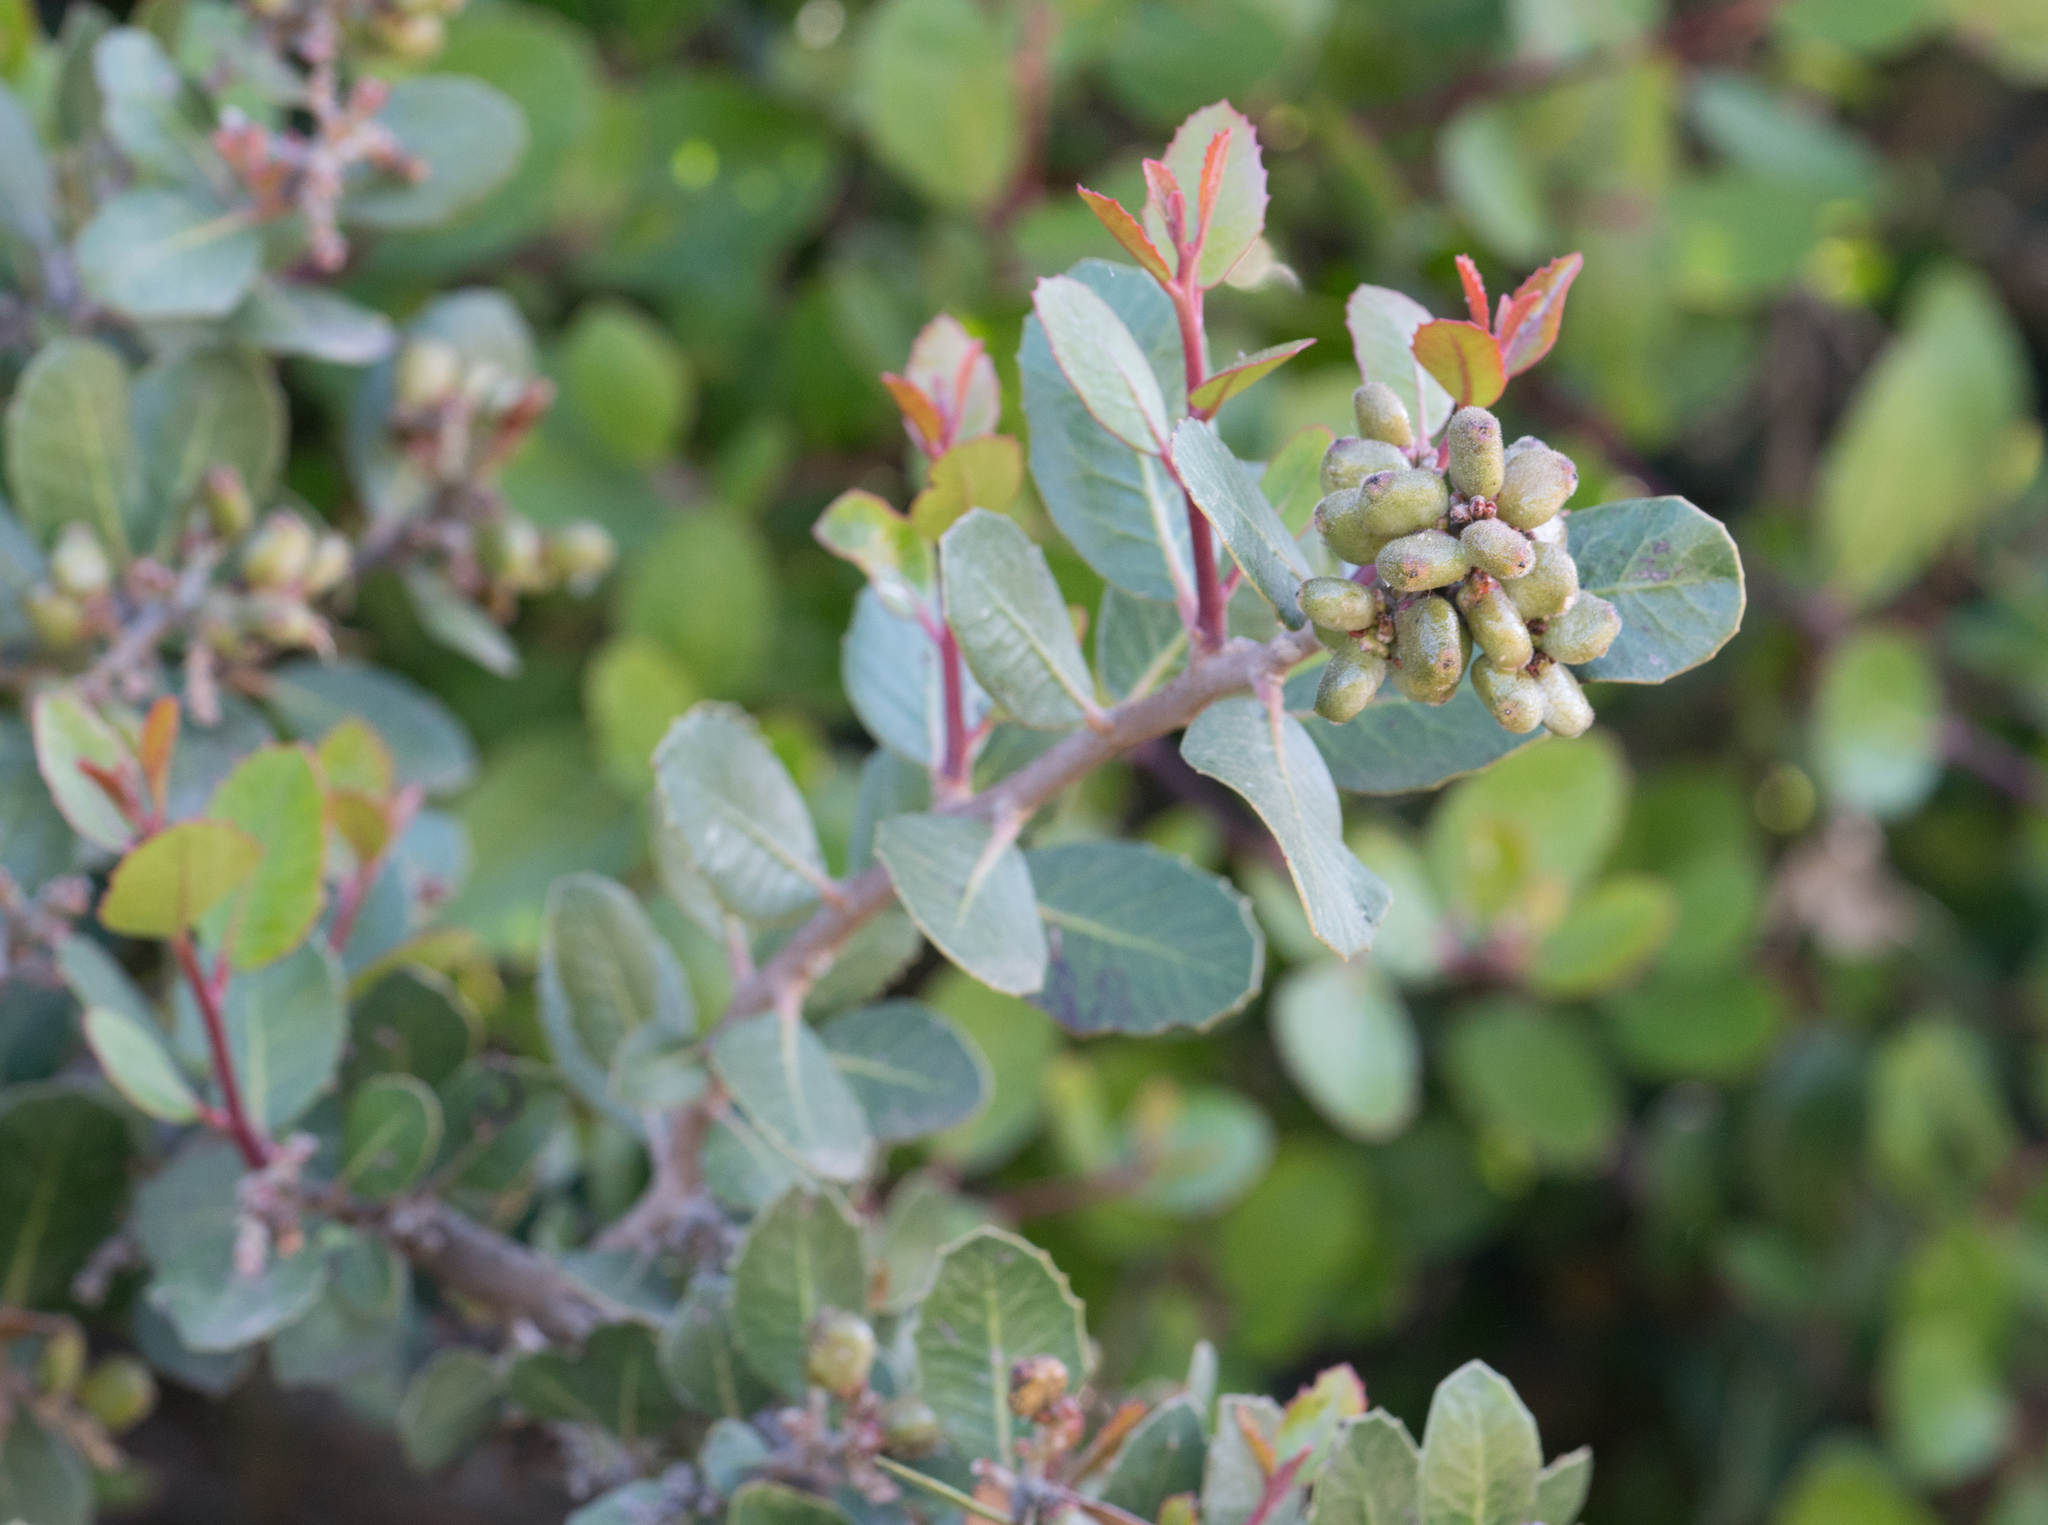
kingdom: Plantae
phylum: Tracheophyta
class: Magnoliopsida
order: Sapindales
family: Anacardiaceae
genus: Rhus
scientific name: Rhus integrifolia
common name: Lemonade sumac
